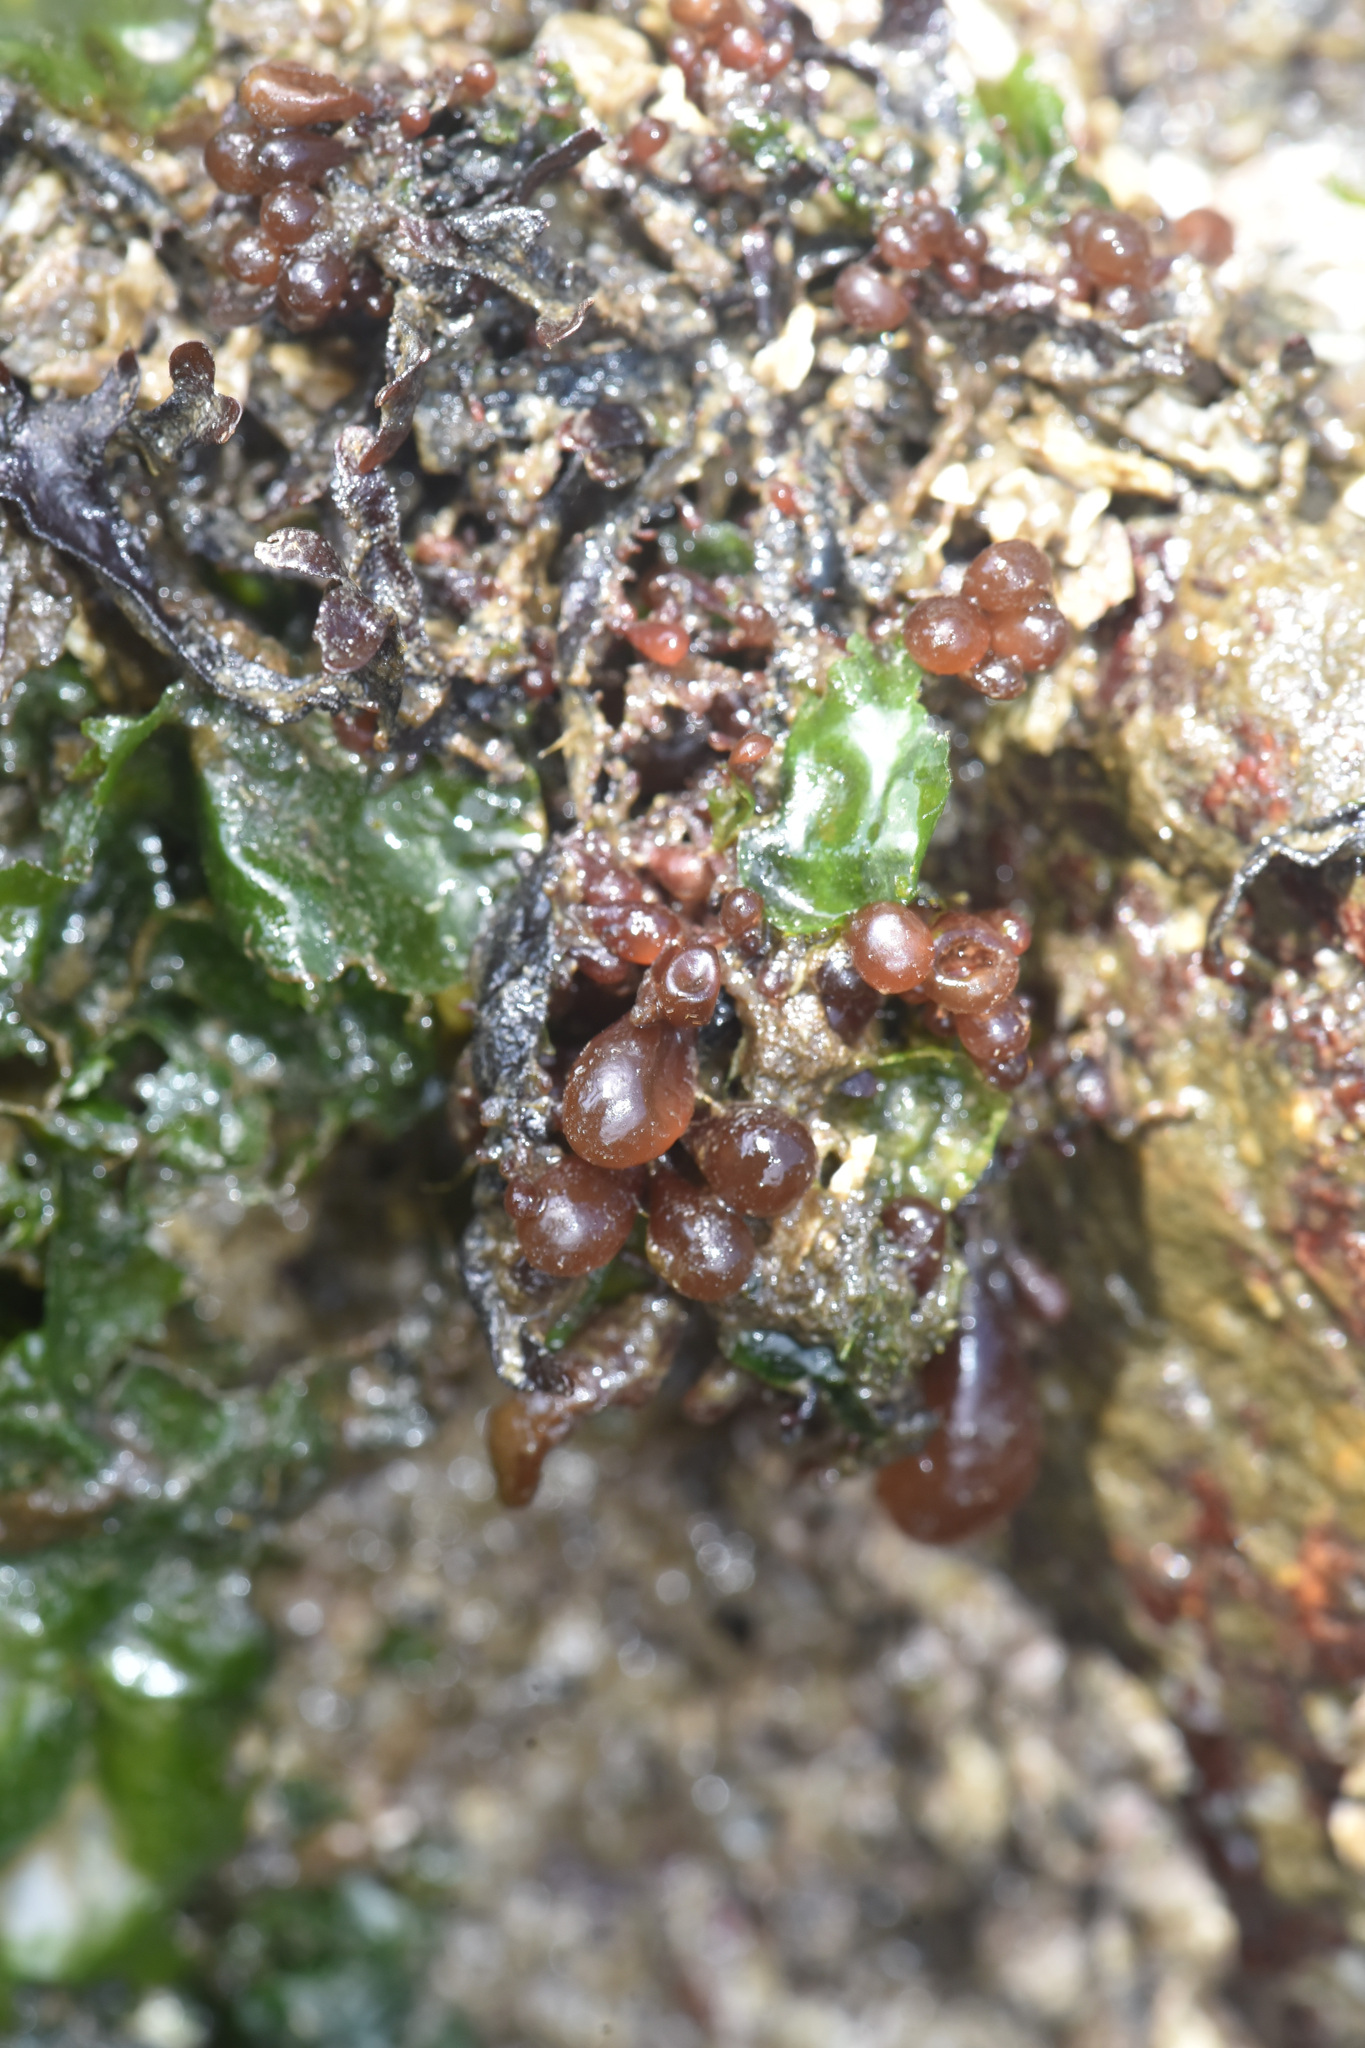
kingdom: Plantae
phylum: Rhodophyta
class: Florideophyceae
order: Palmariales
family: Palmariaceae
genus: Halosaccion
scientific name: Halosaccion glandiforme
